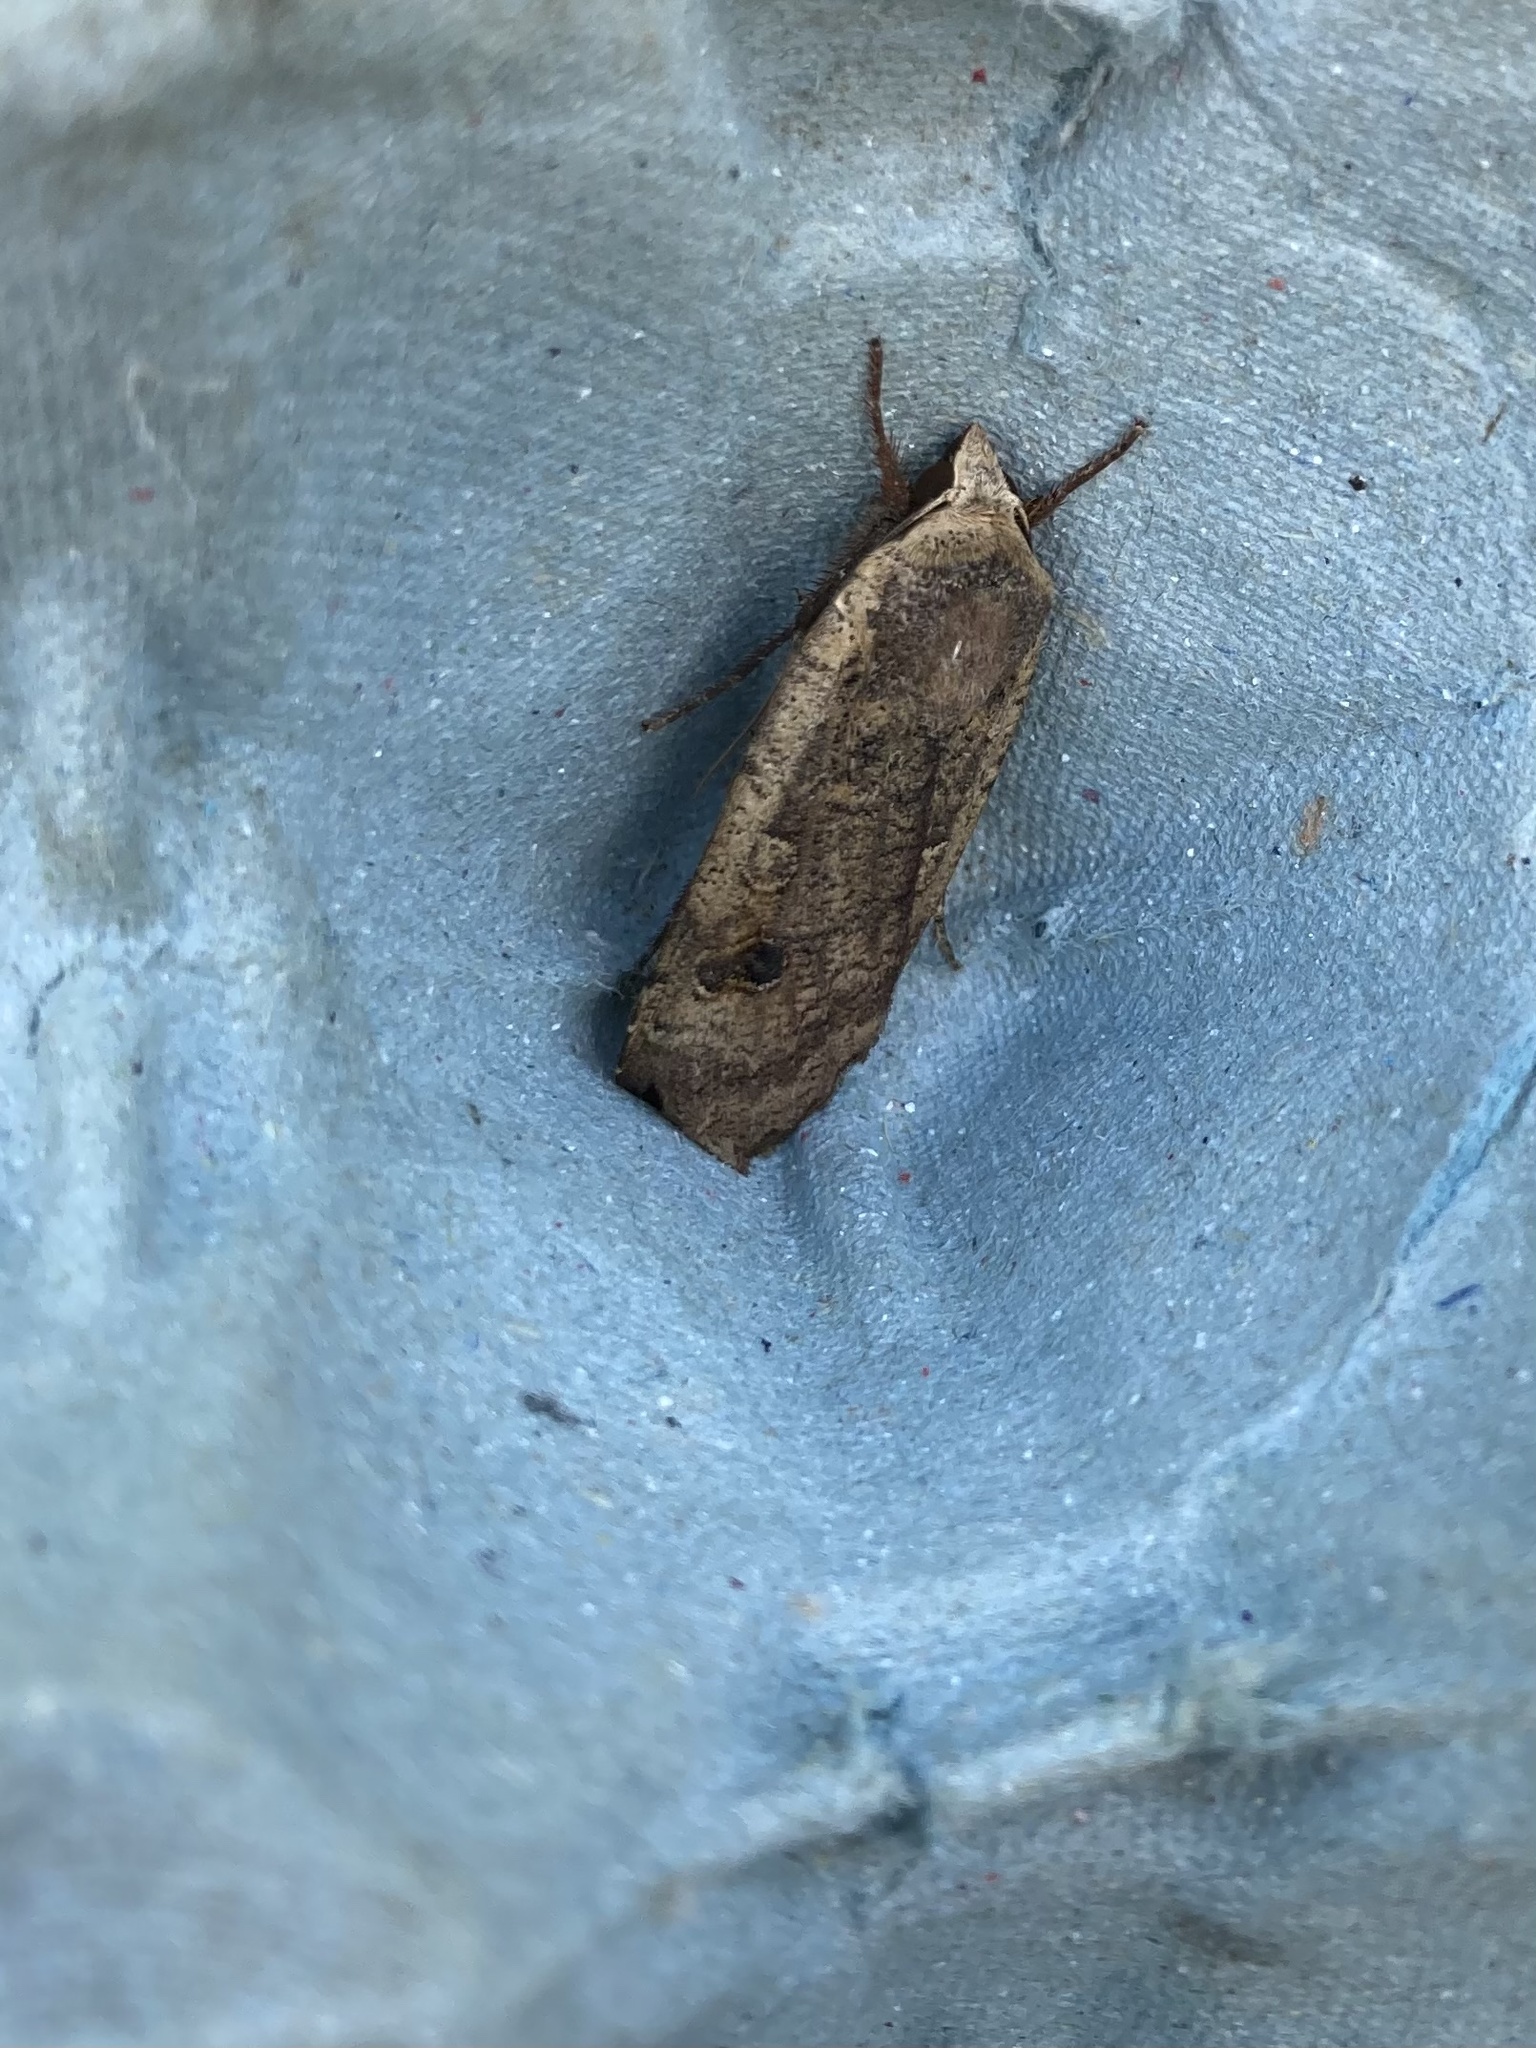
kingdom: Animalia
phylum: Arthropoda
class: Insecta
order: Lepidoptera
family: Noctuidae
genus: Noctua
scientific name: Noctua pronuba
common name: Large yellow underwing
